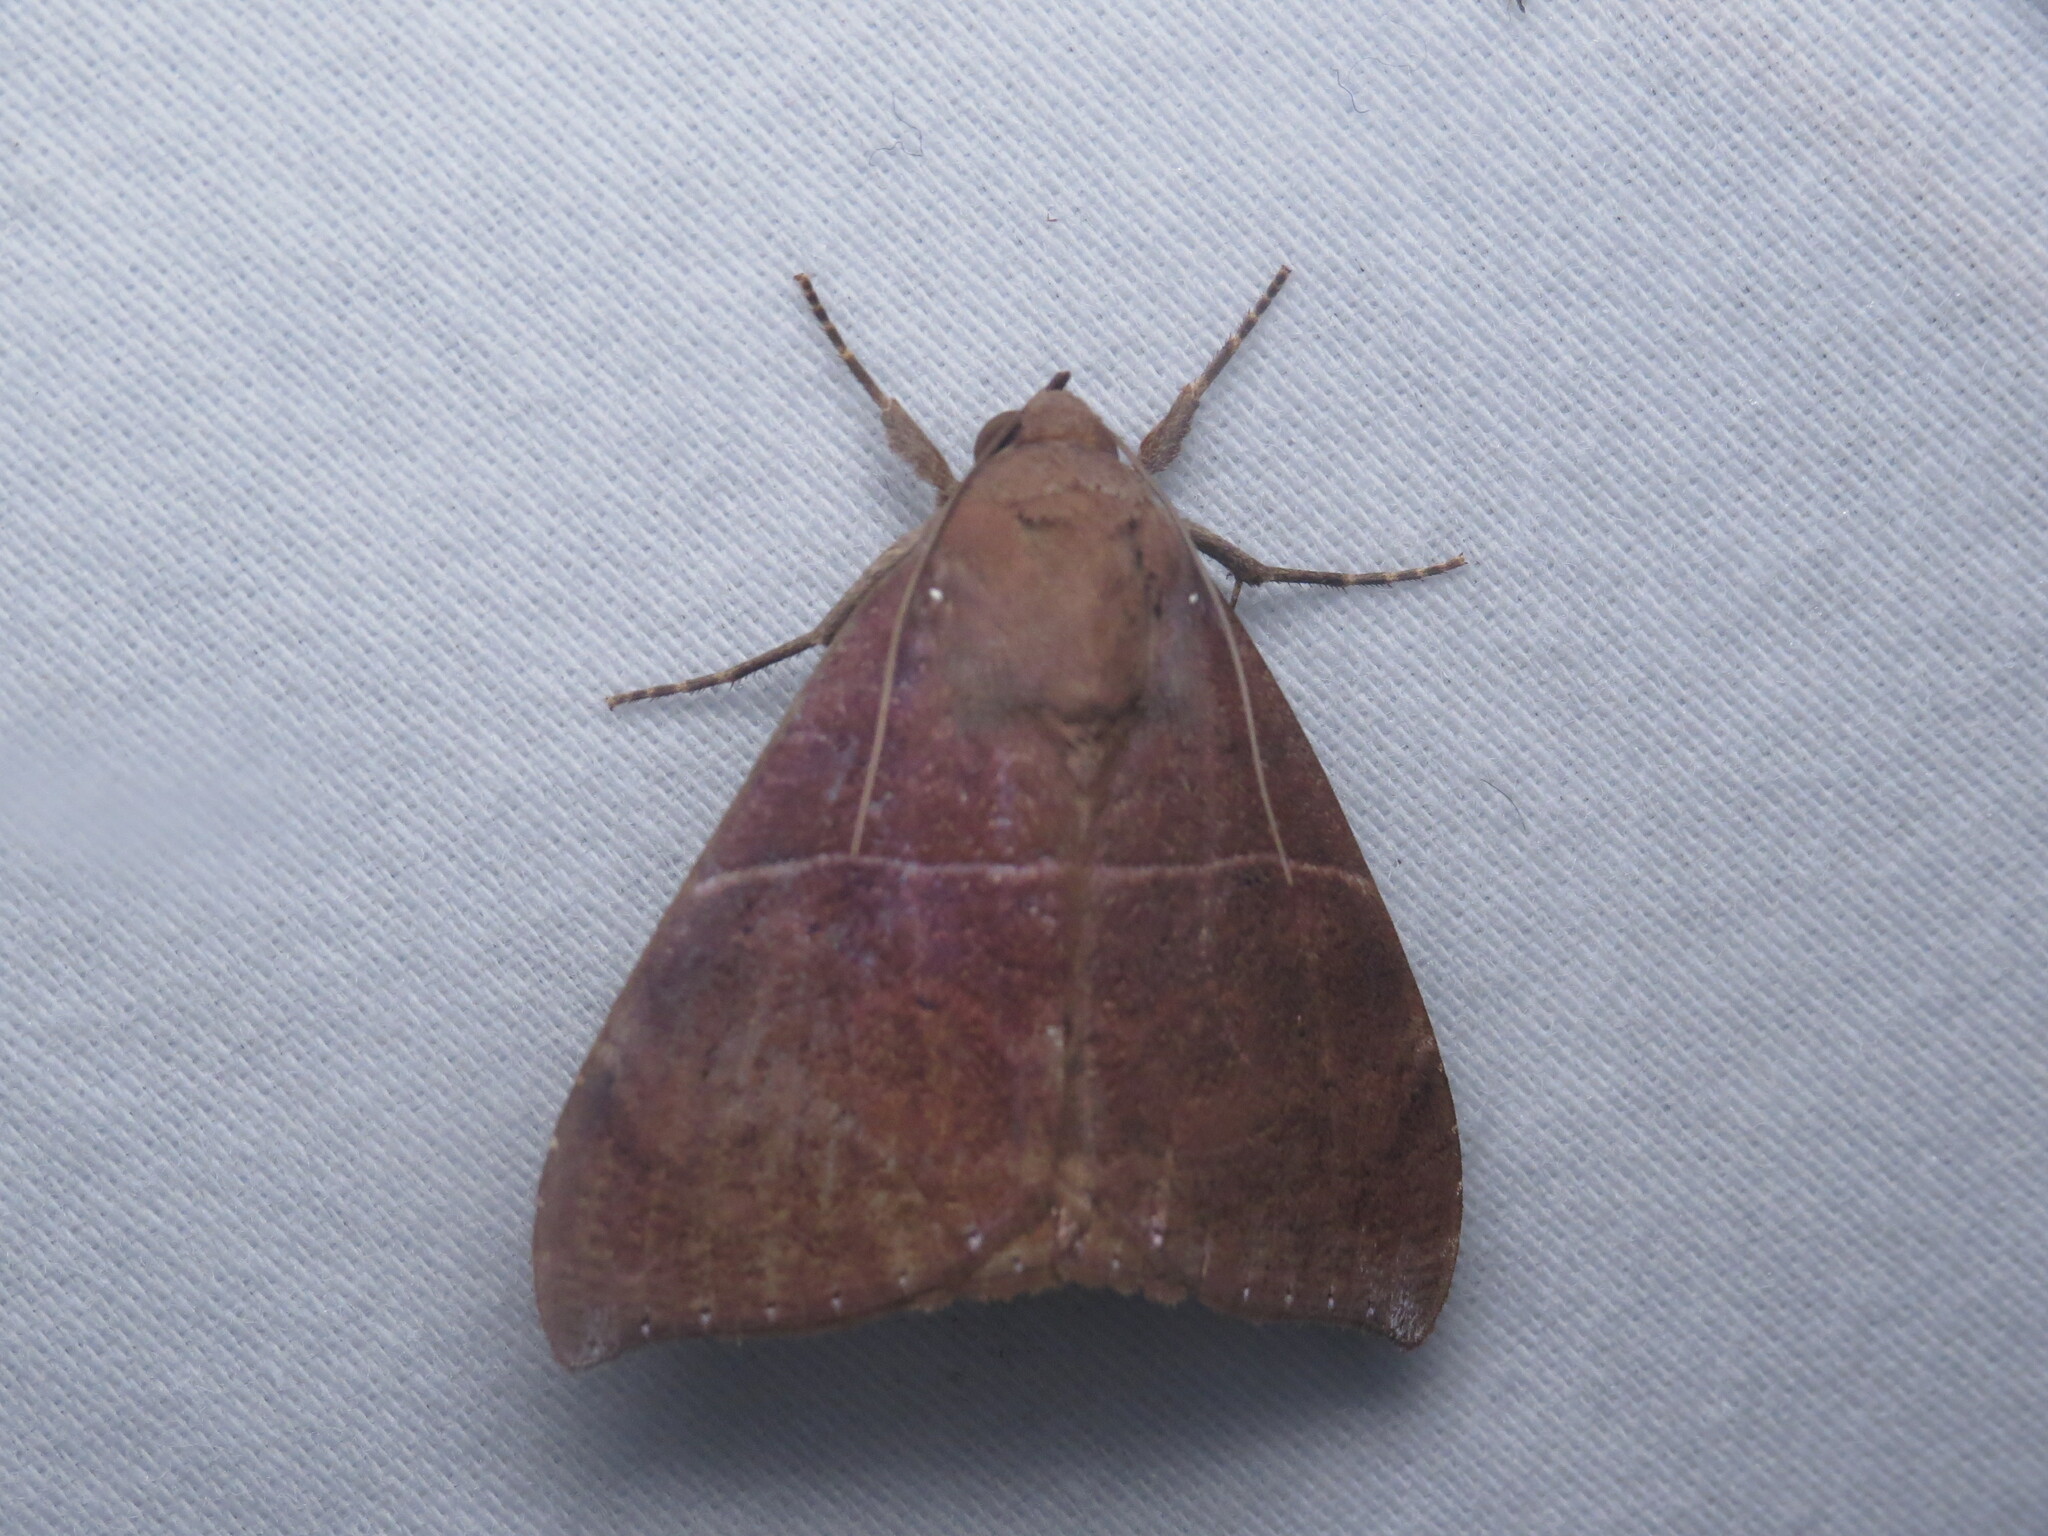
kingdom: Animalia
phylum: Arthropoda
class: Insecta
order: Lepidoptera
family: Erebidae
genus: Ophisma
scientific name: Ophisma tropicalis
